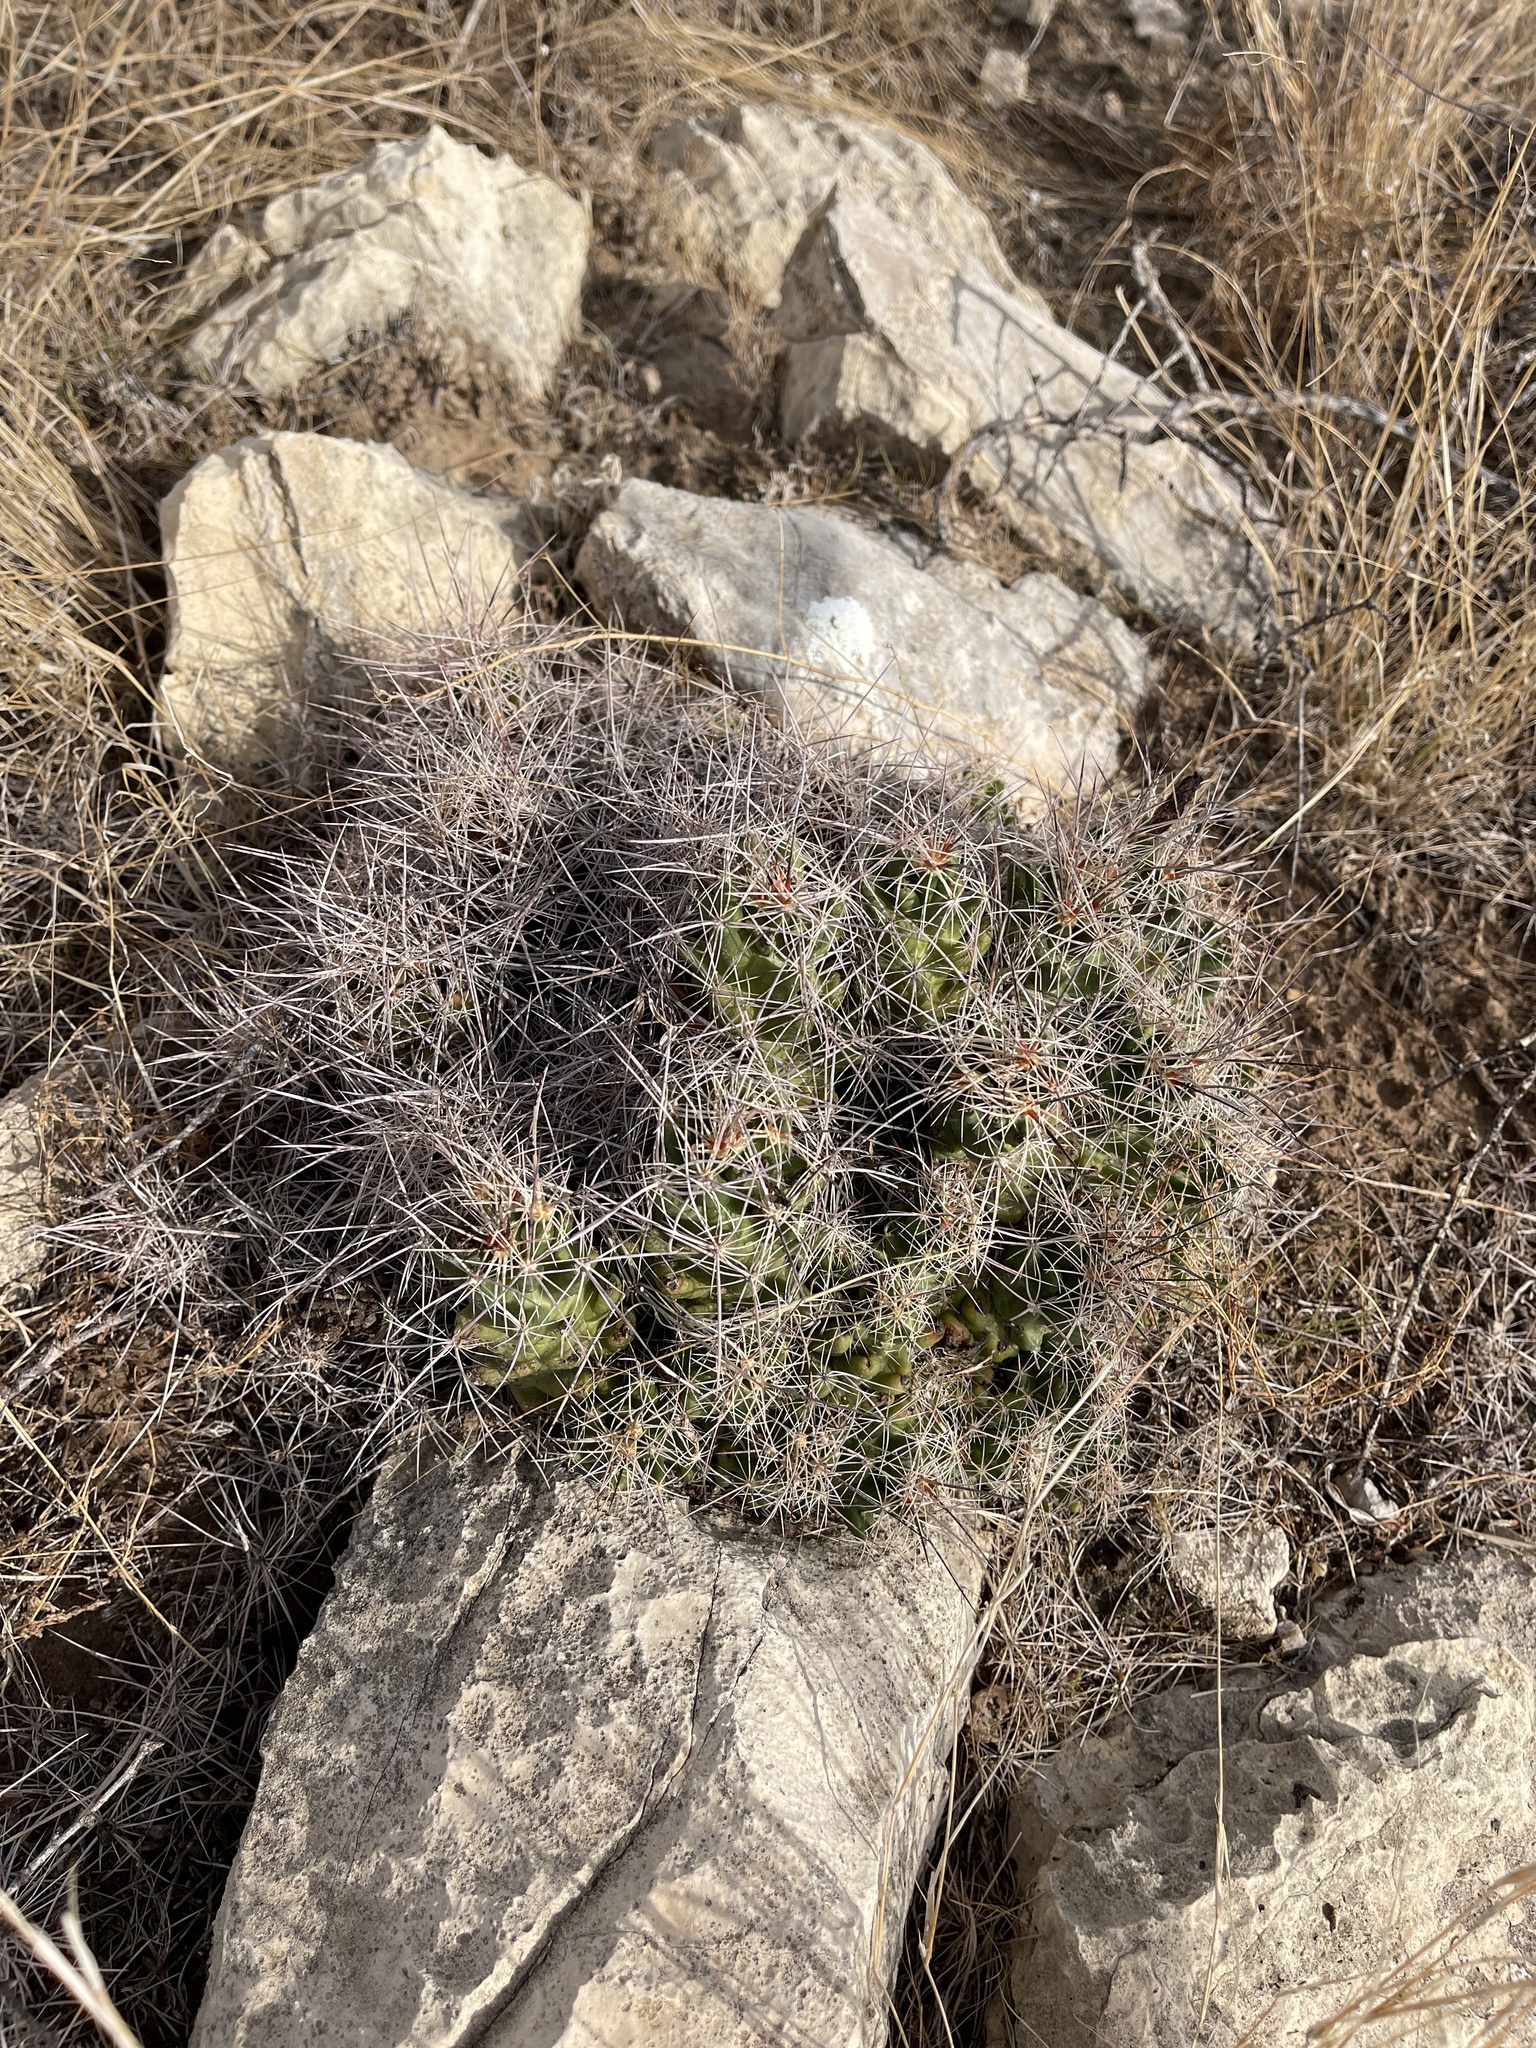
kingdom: Plantae
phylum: Tracheophyta
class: Magnoliopsida
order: Caryophyllales
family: Cactaceae
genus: Coryphantha
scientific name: Coryphantha macromeris
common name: Nipple beehive cactus
